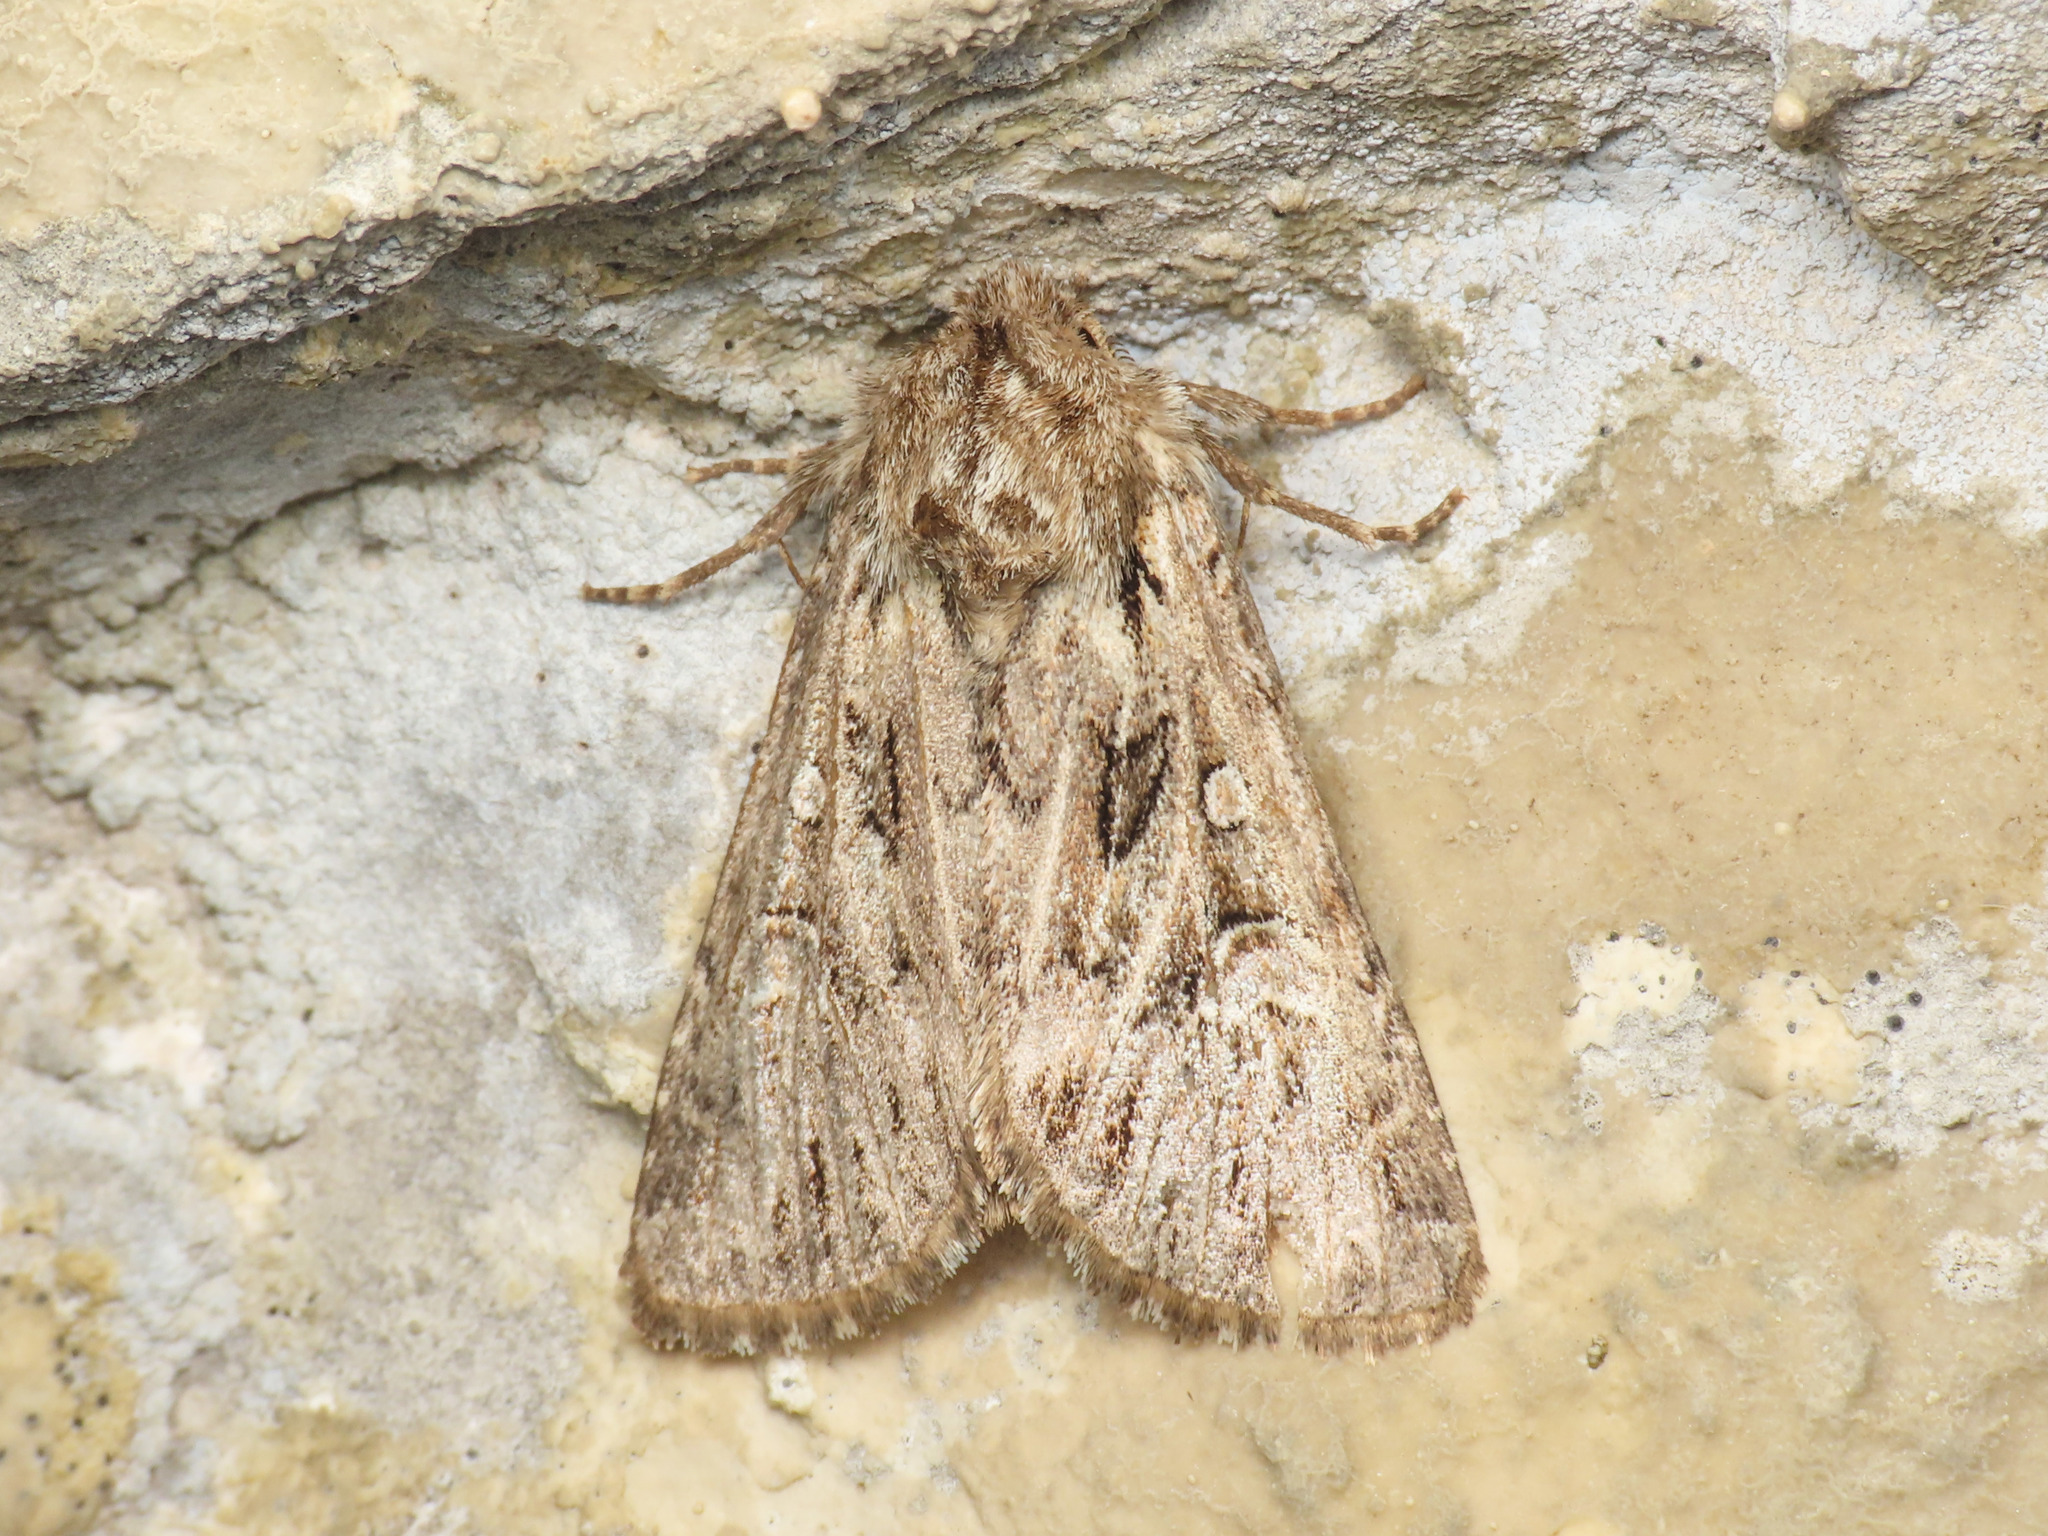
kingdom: Animalia
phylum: Arthropoda
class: Insecta
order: Lepidoptera
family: Noctuidae
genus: Pachetra
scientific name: Pachetra sagittigera
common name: Feathered ear
